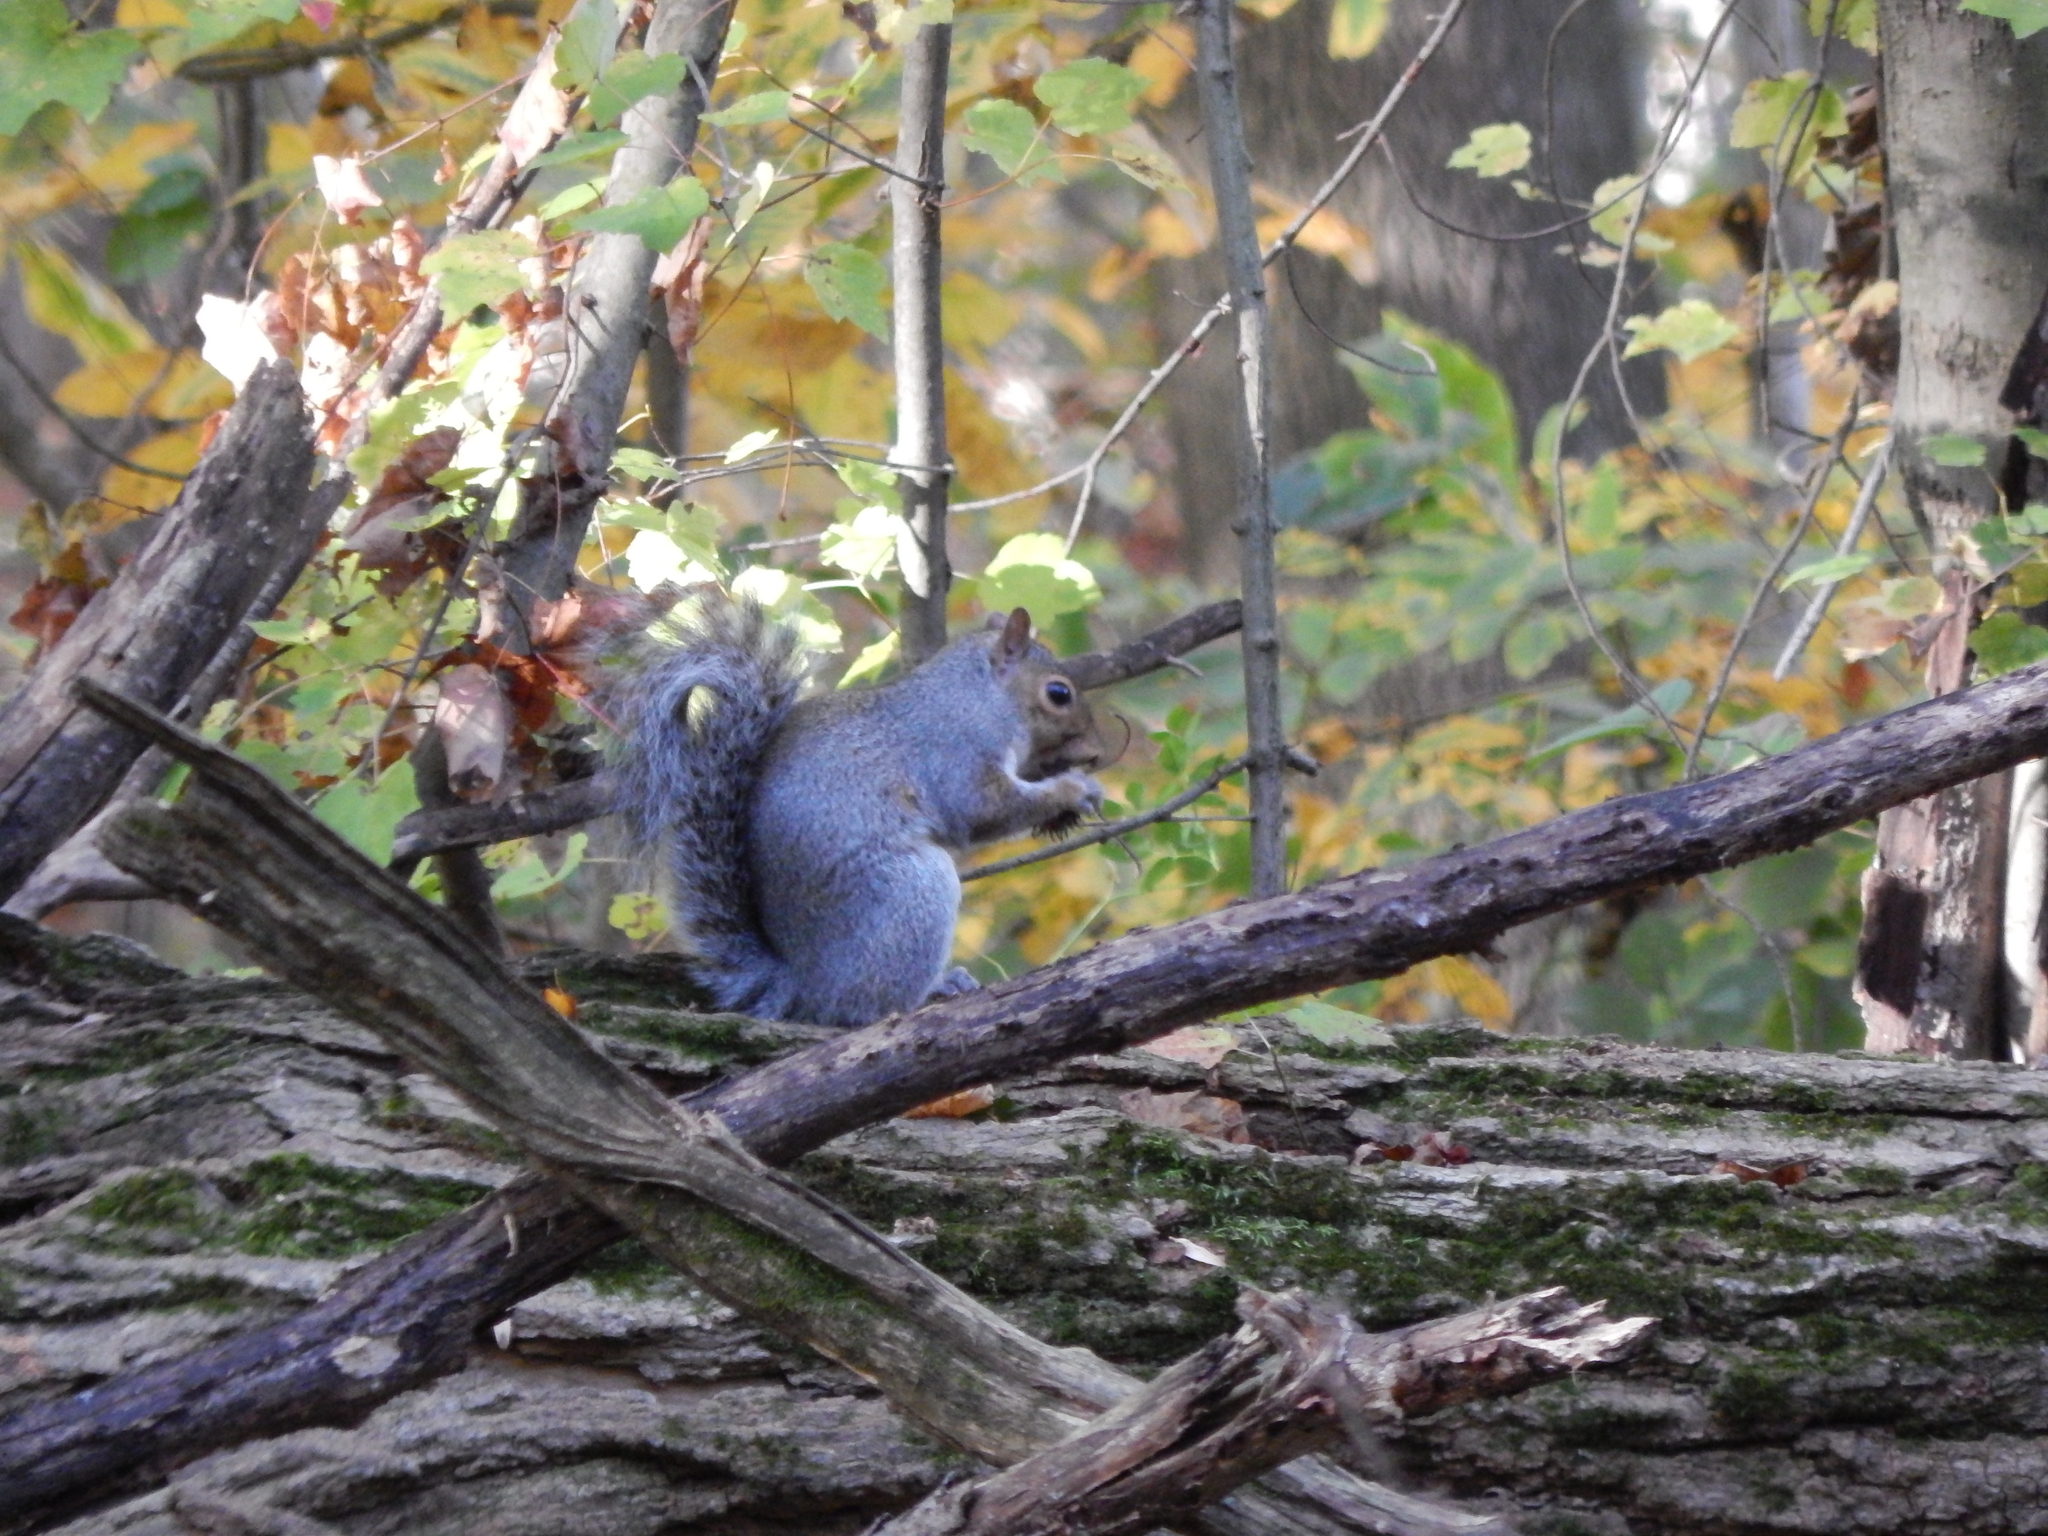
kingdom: Animalia
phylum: Chordata
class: Mammalia
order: Rodentia
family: Sciuridae
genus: Sciurus
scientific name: Sciurus carolinensis
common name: Eastern gray squirrel
